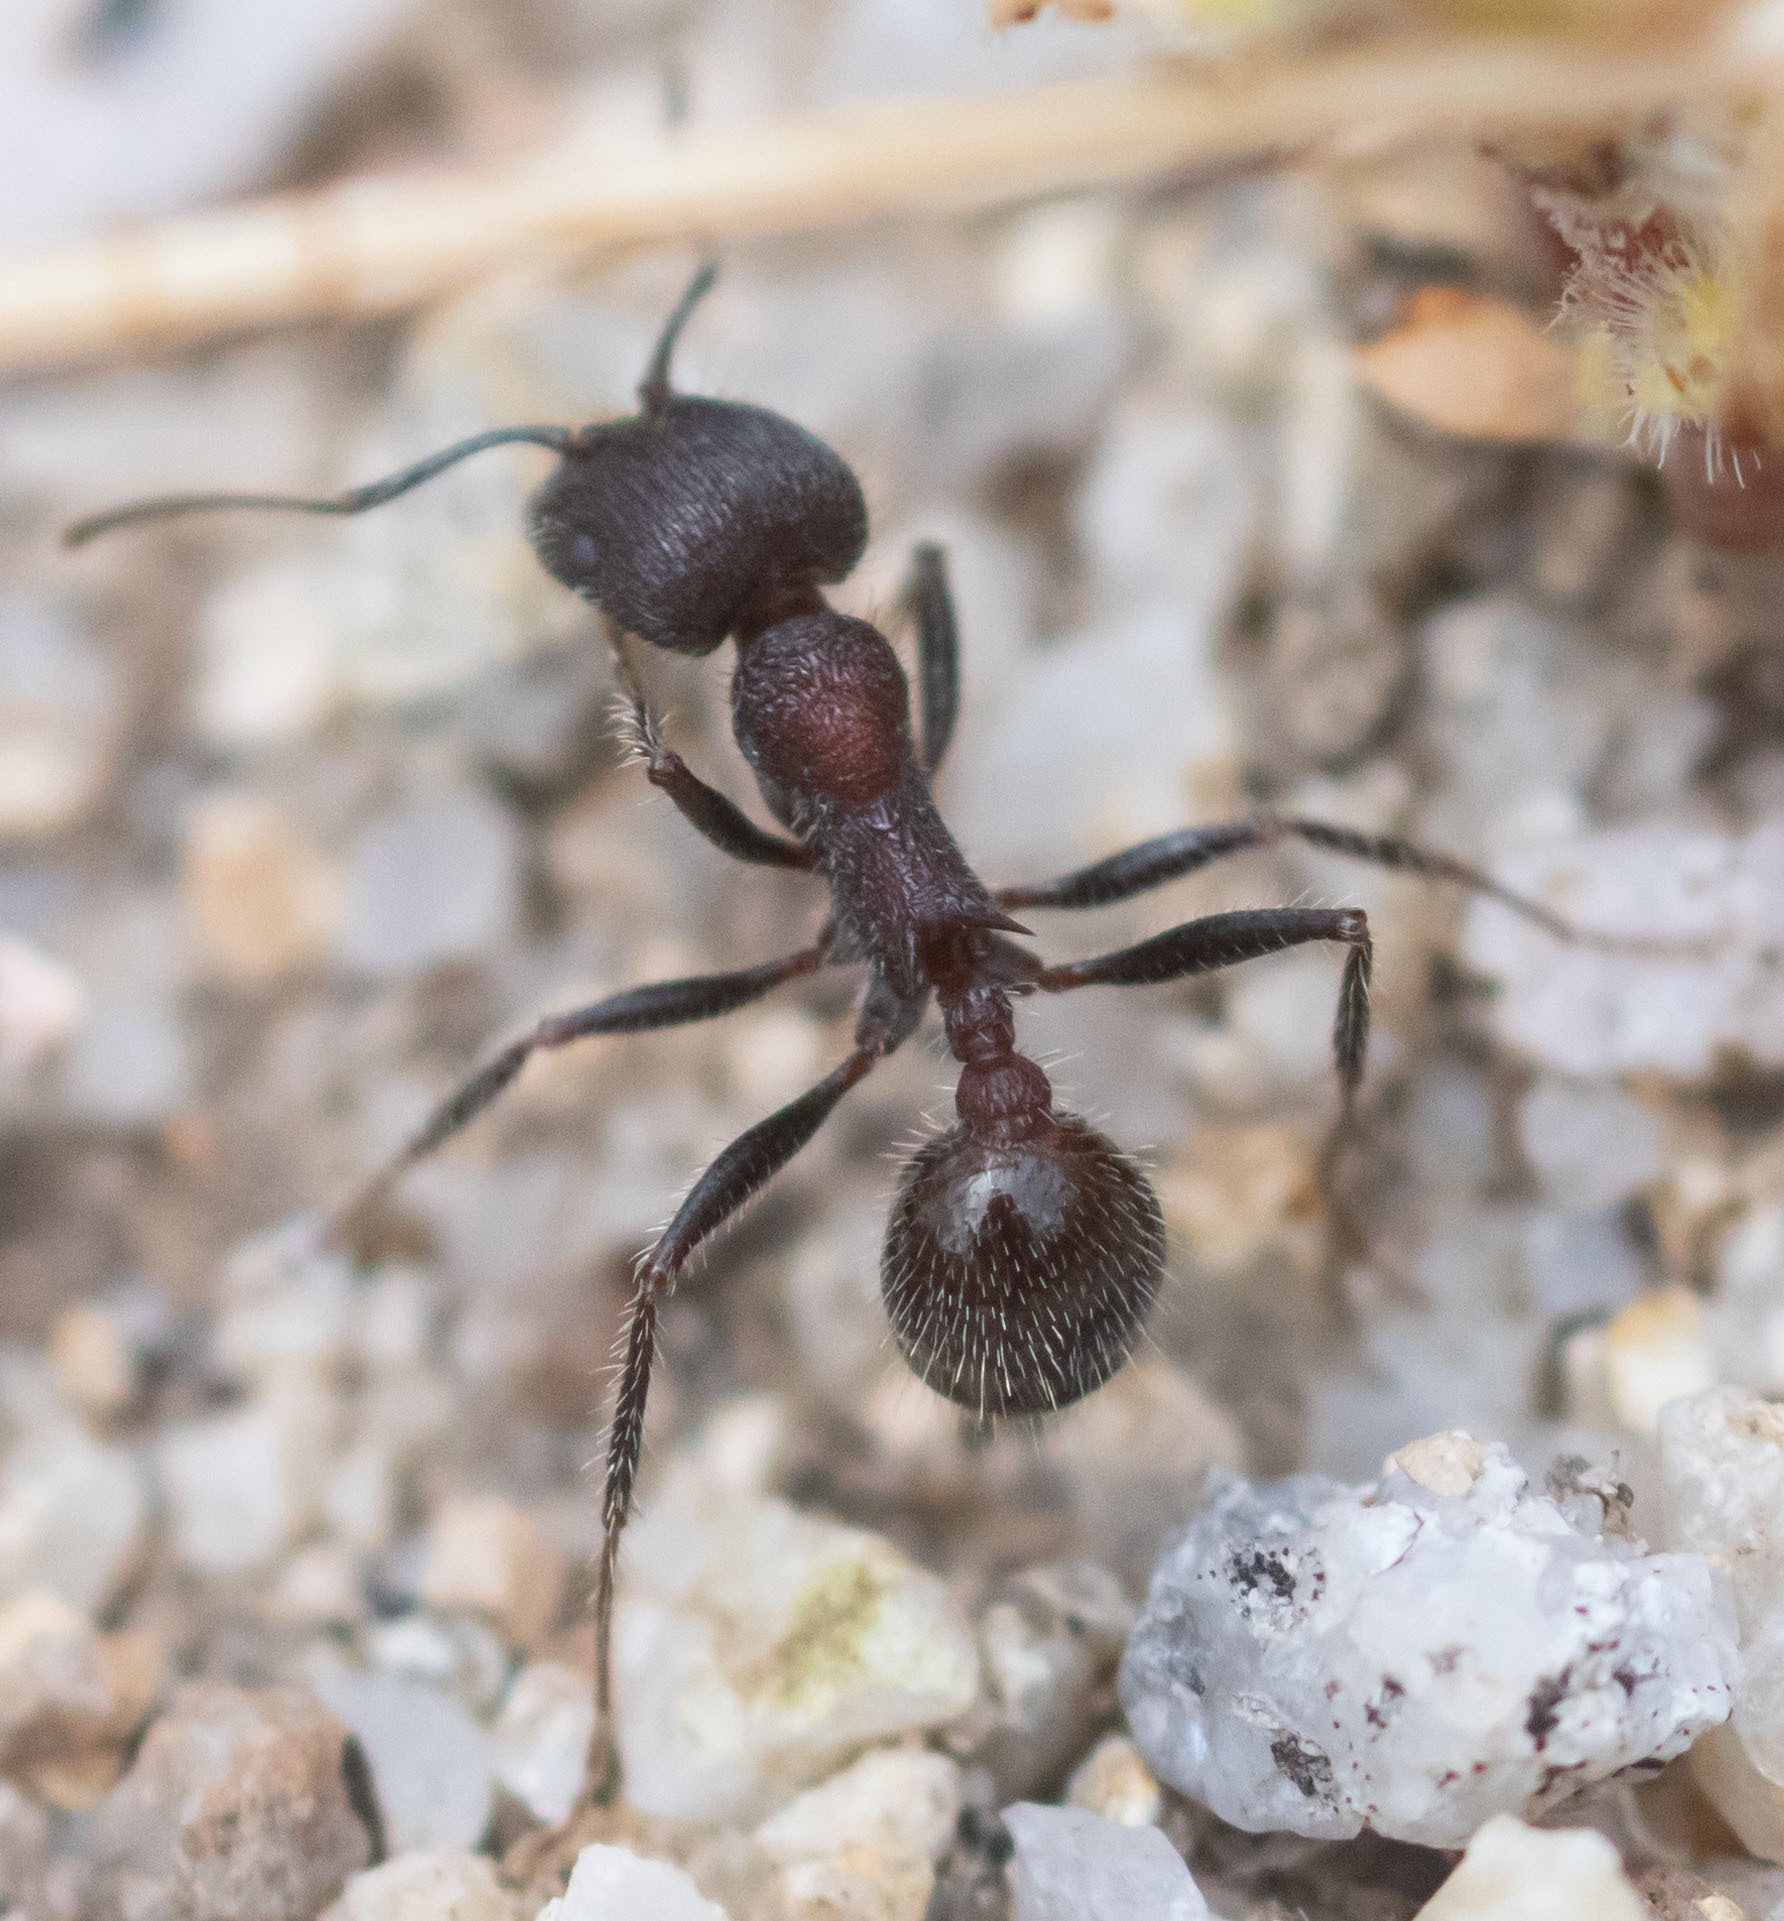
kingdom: Animalia
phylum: Arthropoda
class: Insecta
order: Hymenoptera
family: Formicidae
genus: Veromessor
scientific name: Veromessor andrei
